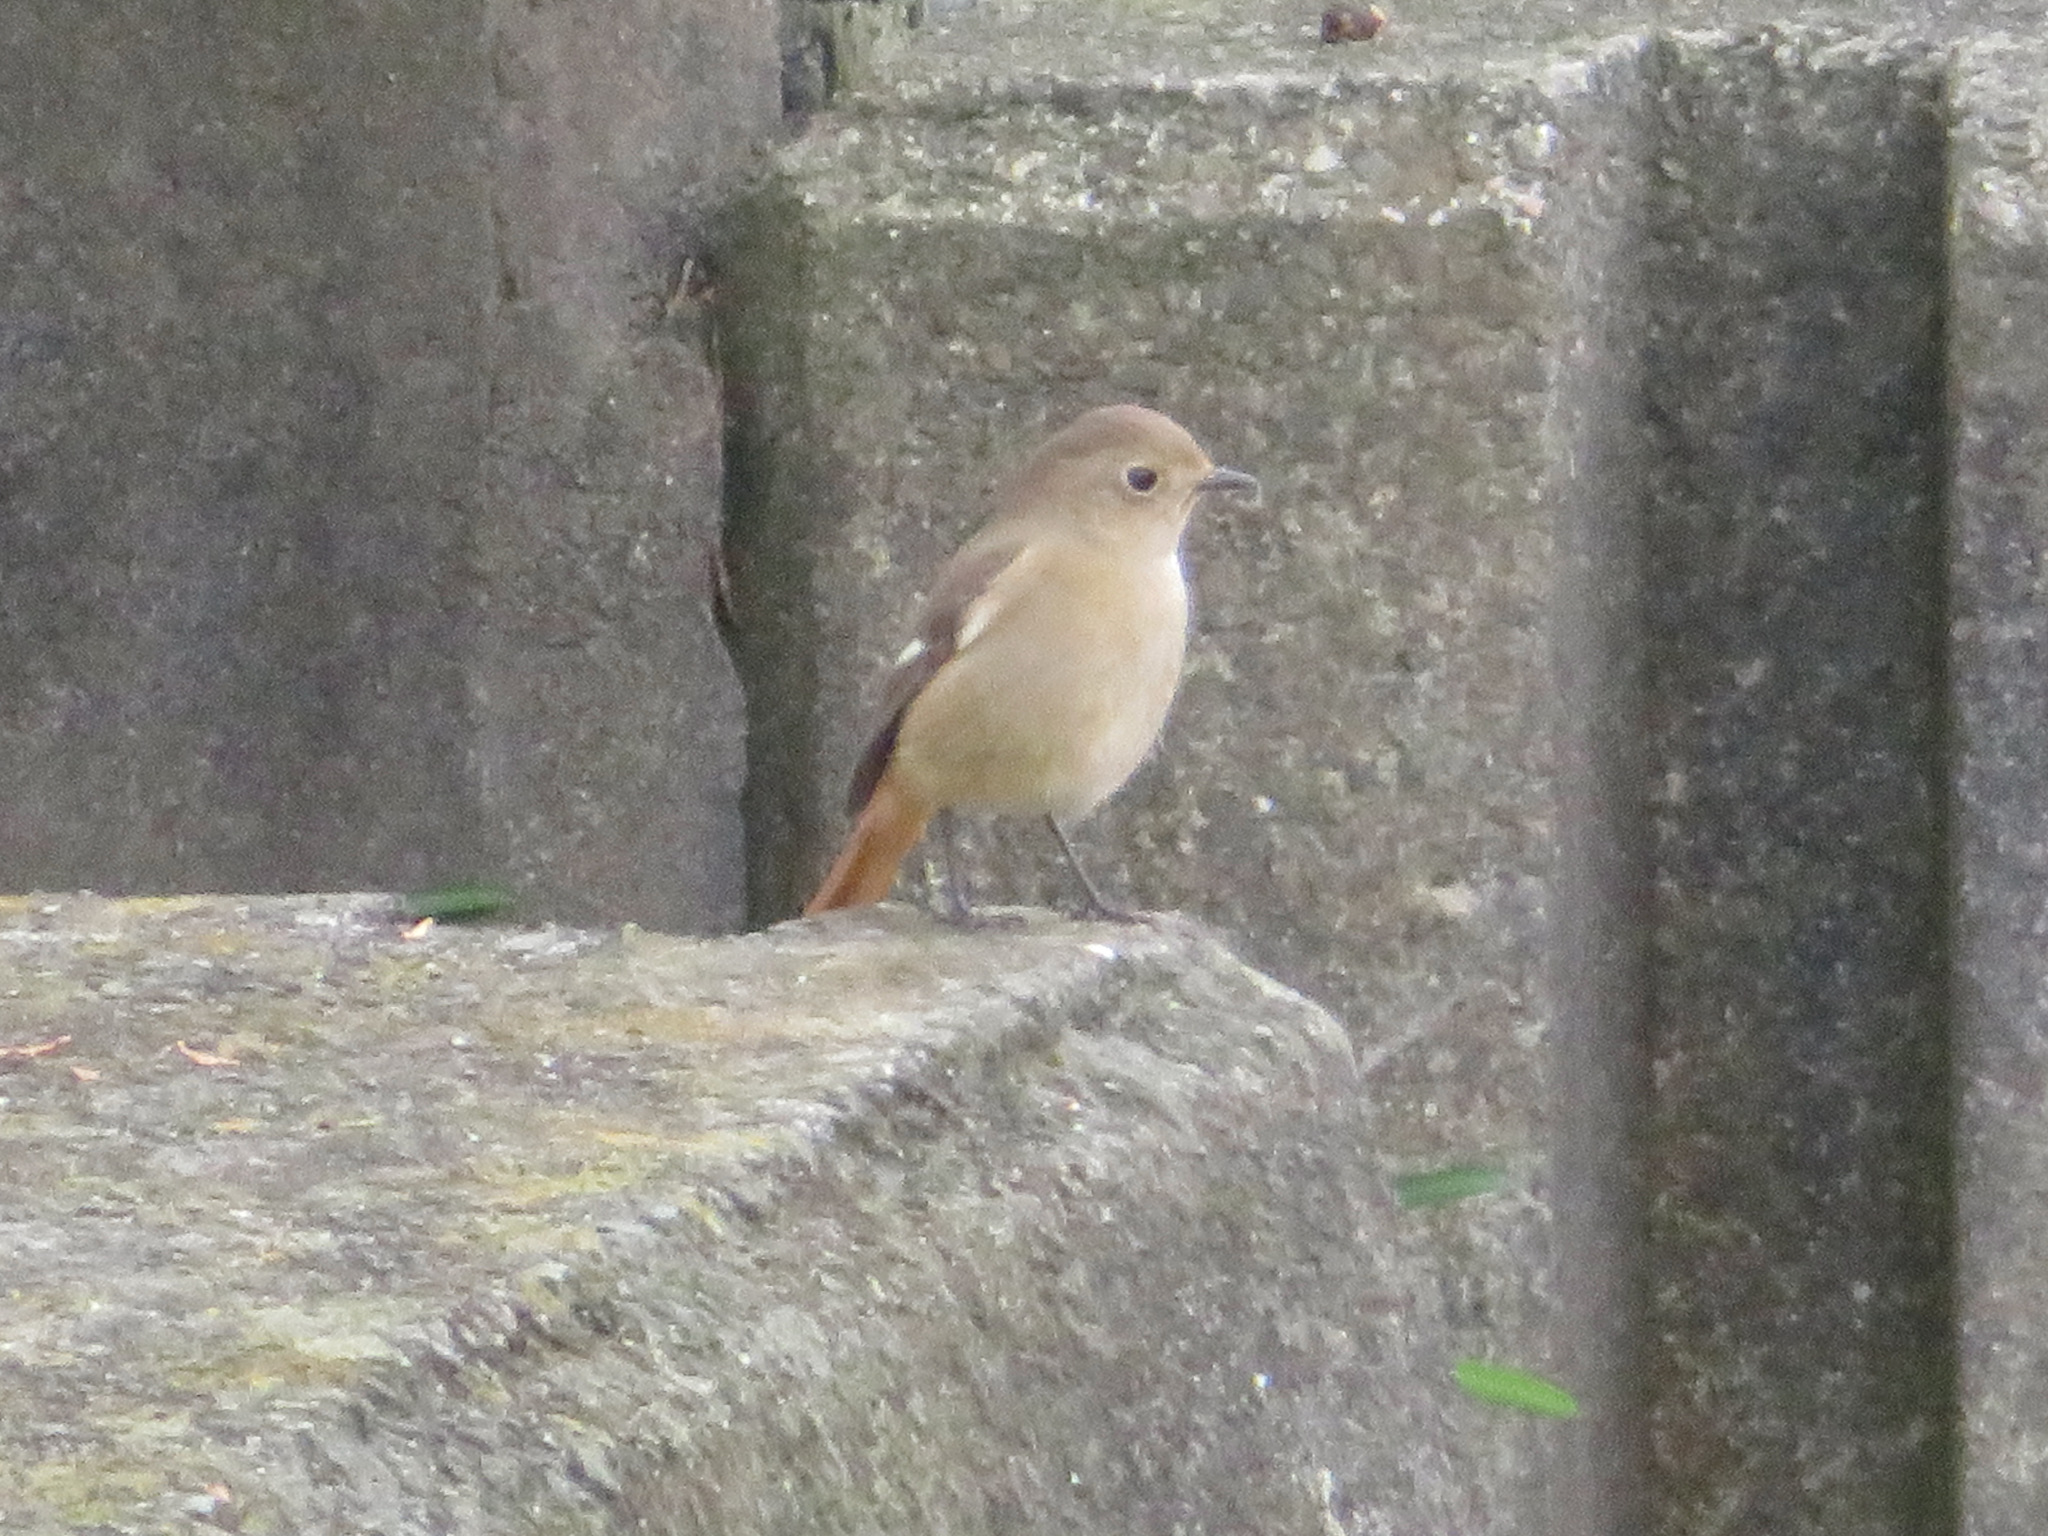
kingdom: Animalia
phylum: Chordata
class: Aves
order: Passeriformes
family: Muscicapidae
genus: Phoenicurus
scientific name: Phoenicurus auroreus
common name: Daurian redstart
